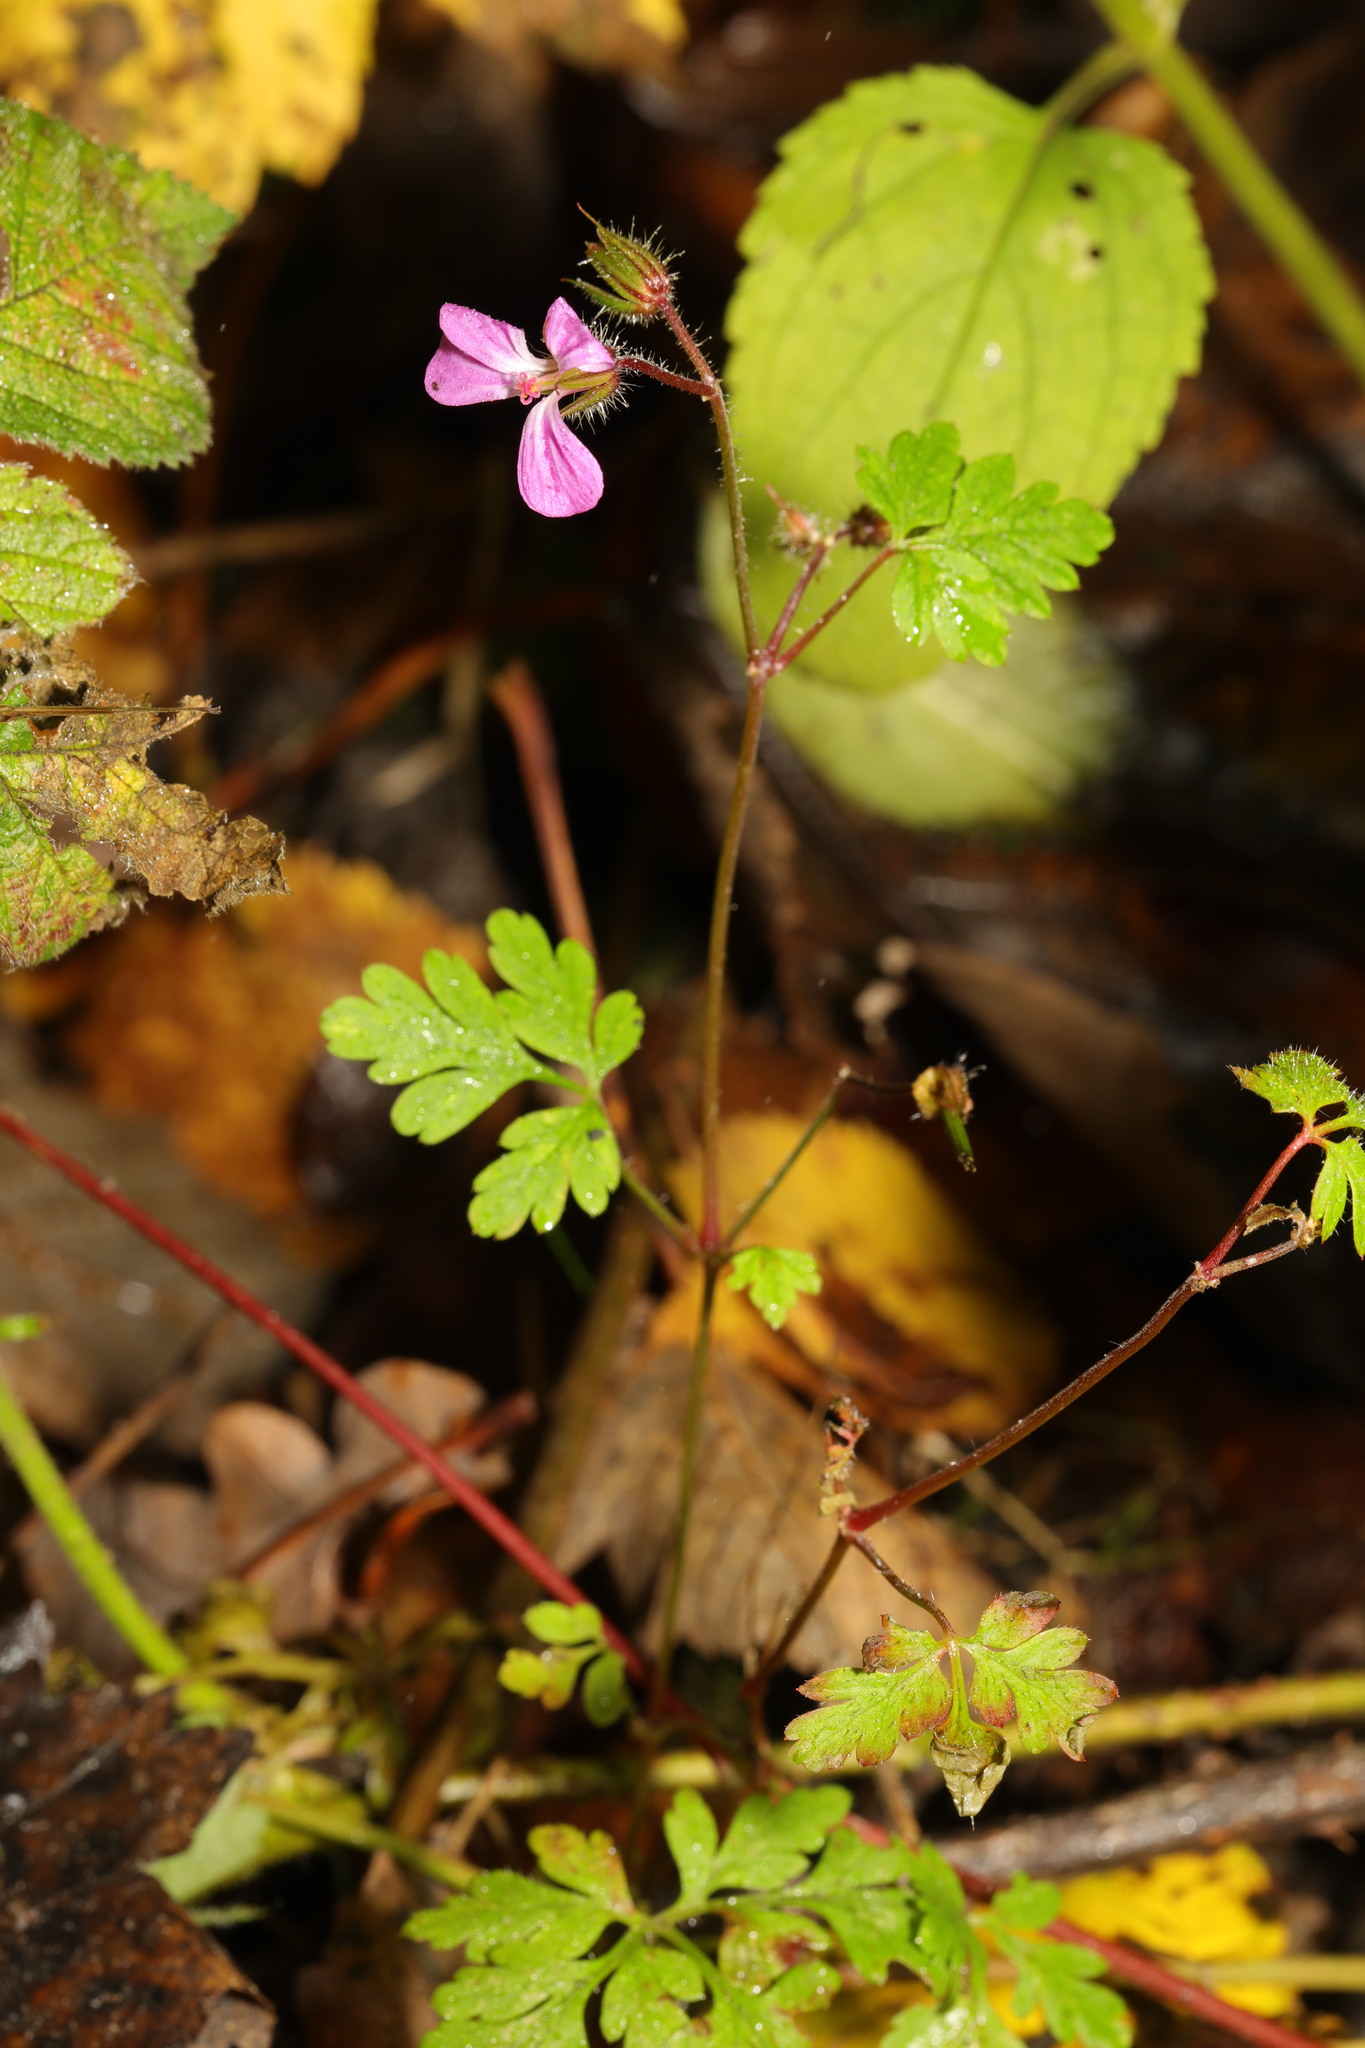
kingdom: Plantae
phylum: Tracheophyta
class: Magnoliopsida
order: Geraniales
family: Geraniaceae
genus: Geranium
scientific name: Geranium robertianum
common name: Herb-robert
